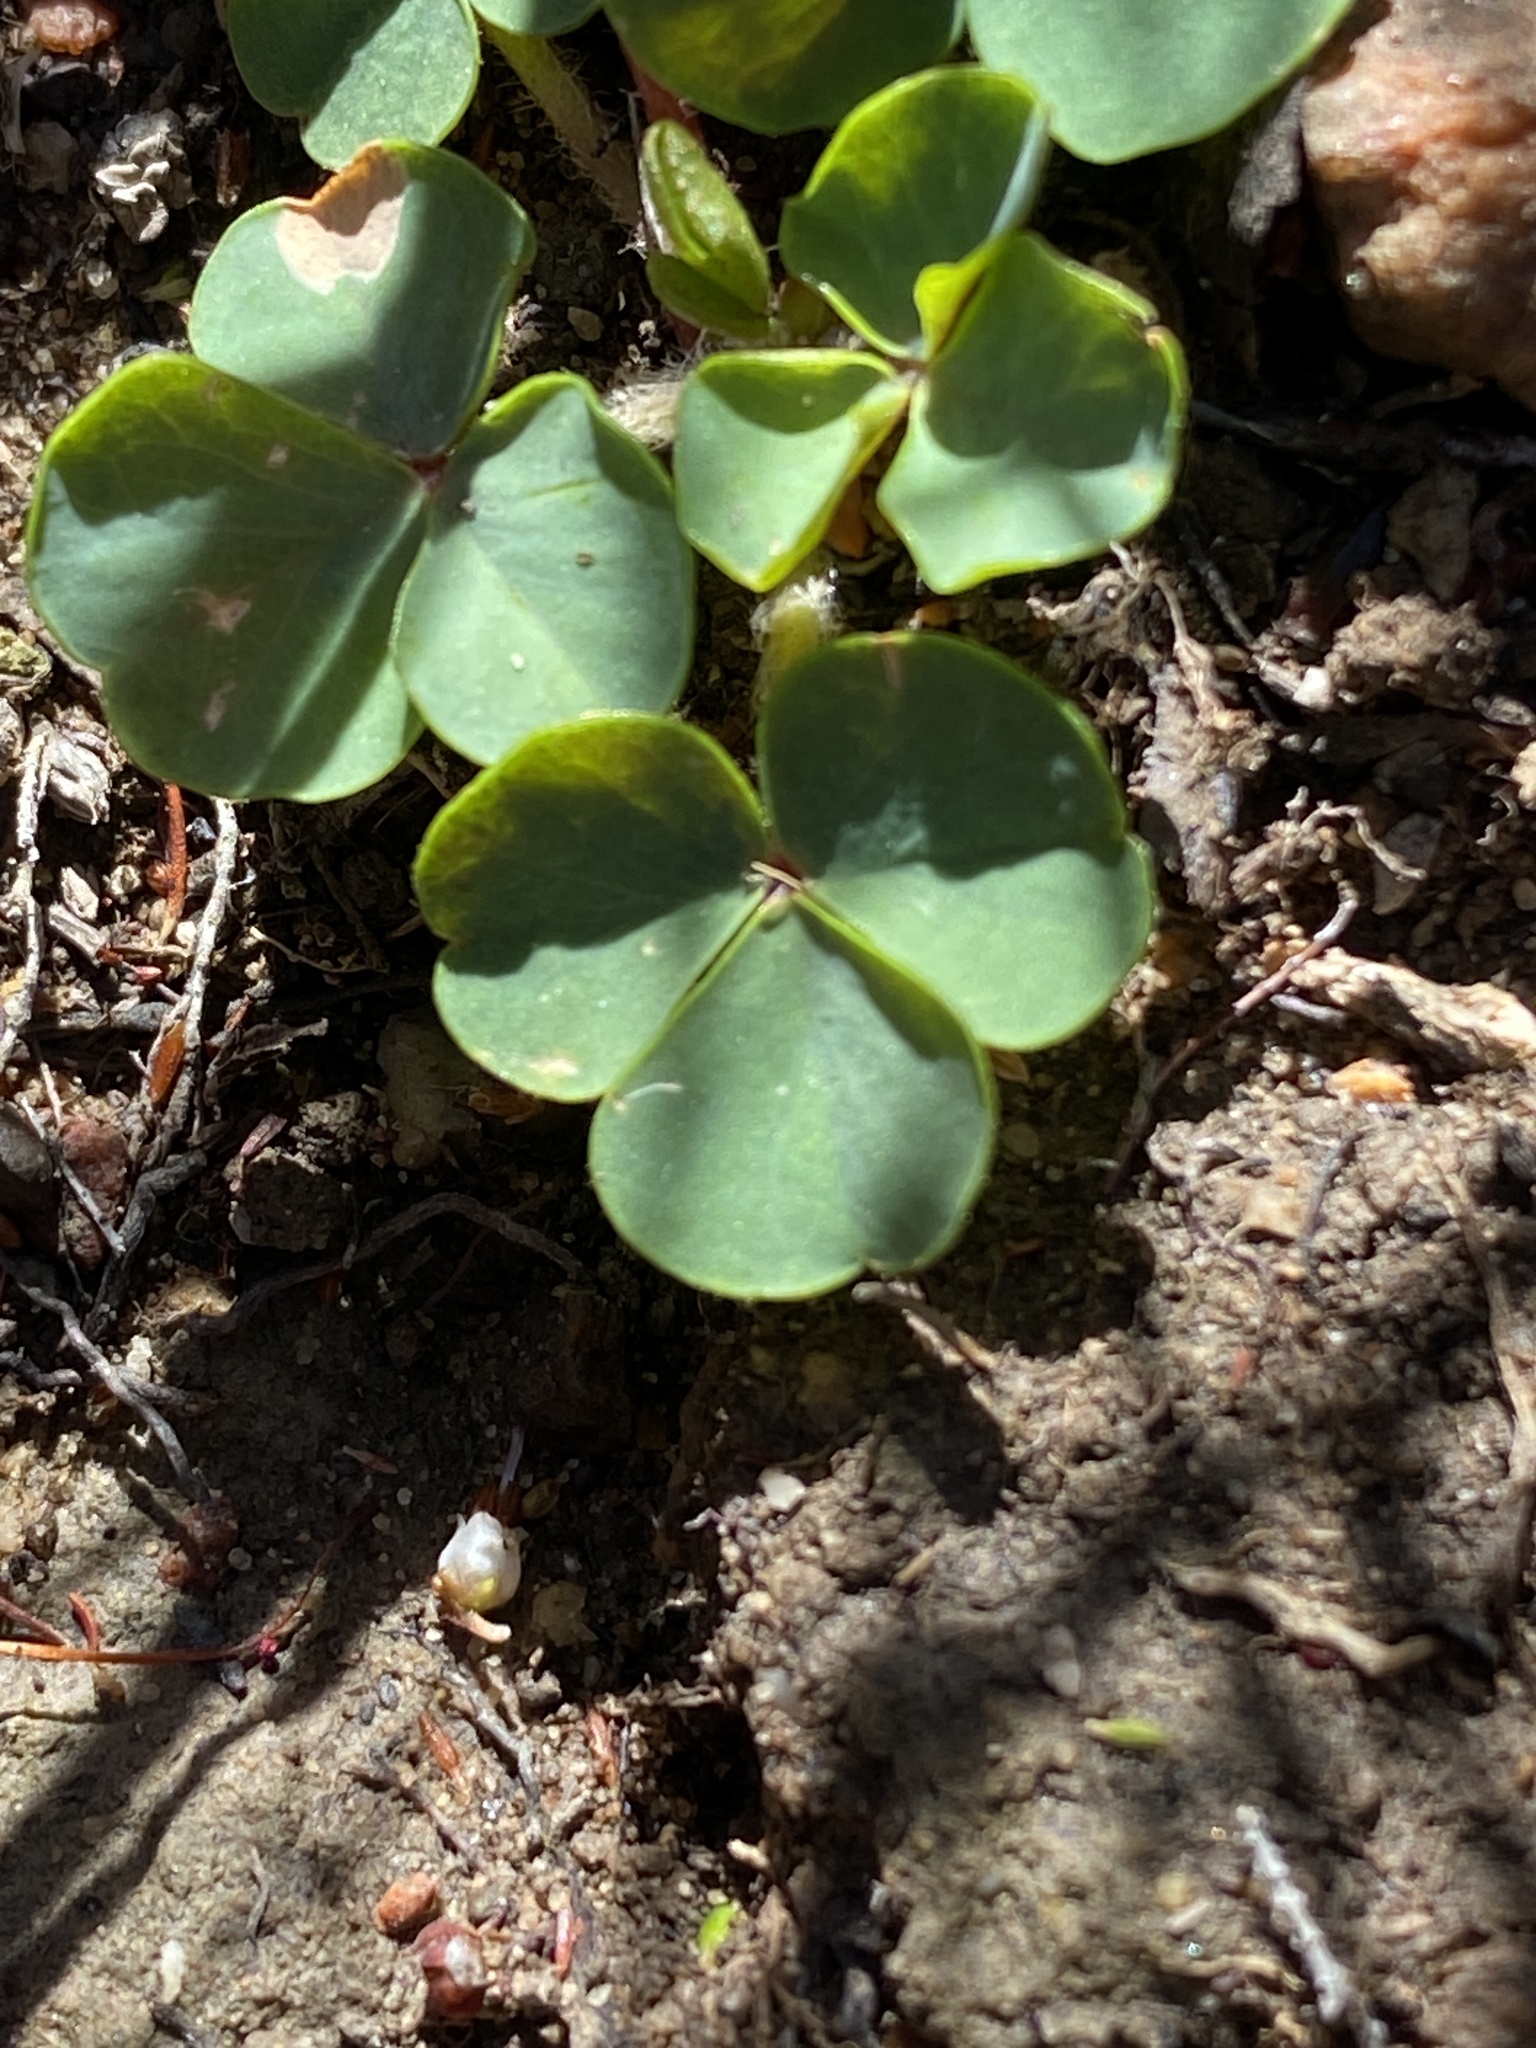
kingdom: Plantae
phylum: Tracheophyta
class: Magnoliopsida
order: Oxalidales
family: Oxalidaceae
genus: Oxalis
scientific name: Oxalis imbricata
